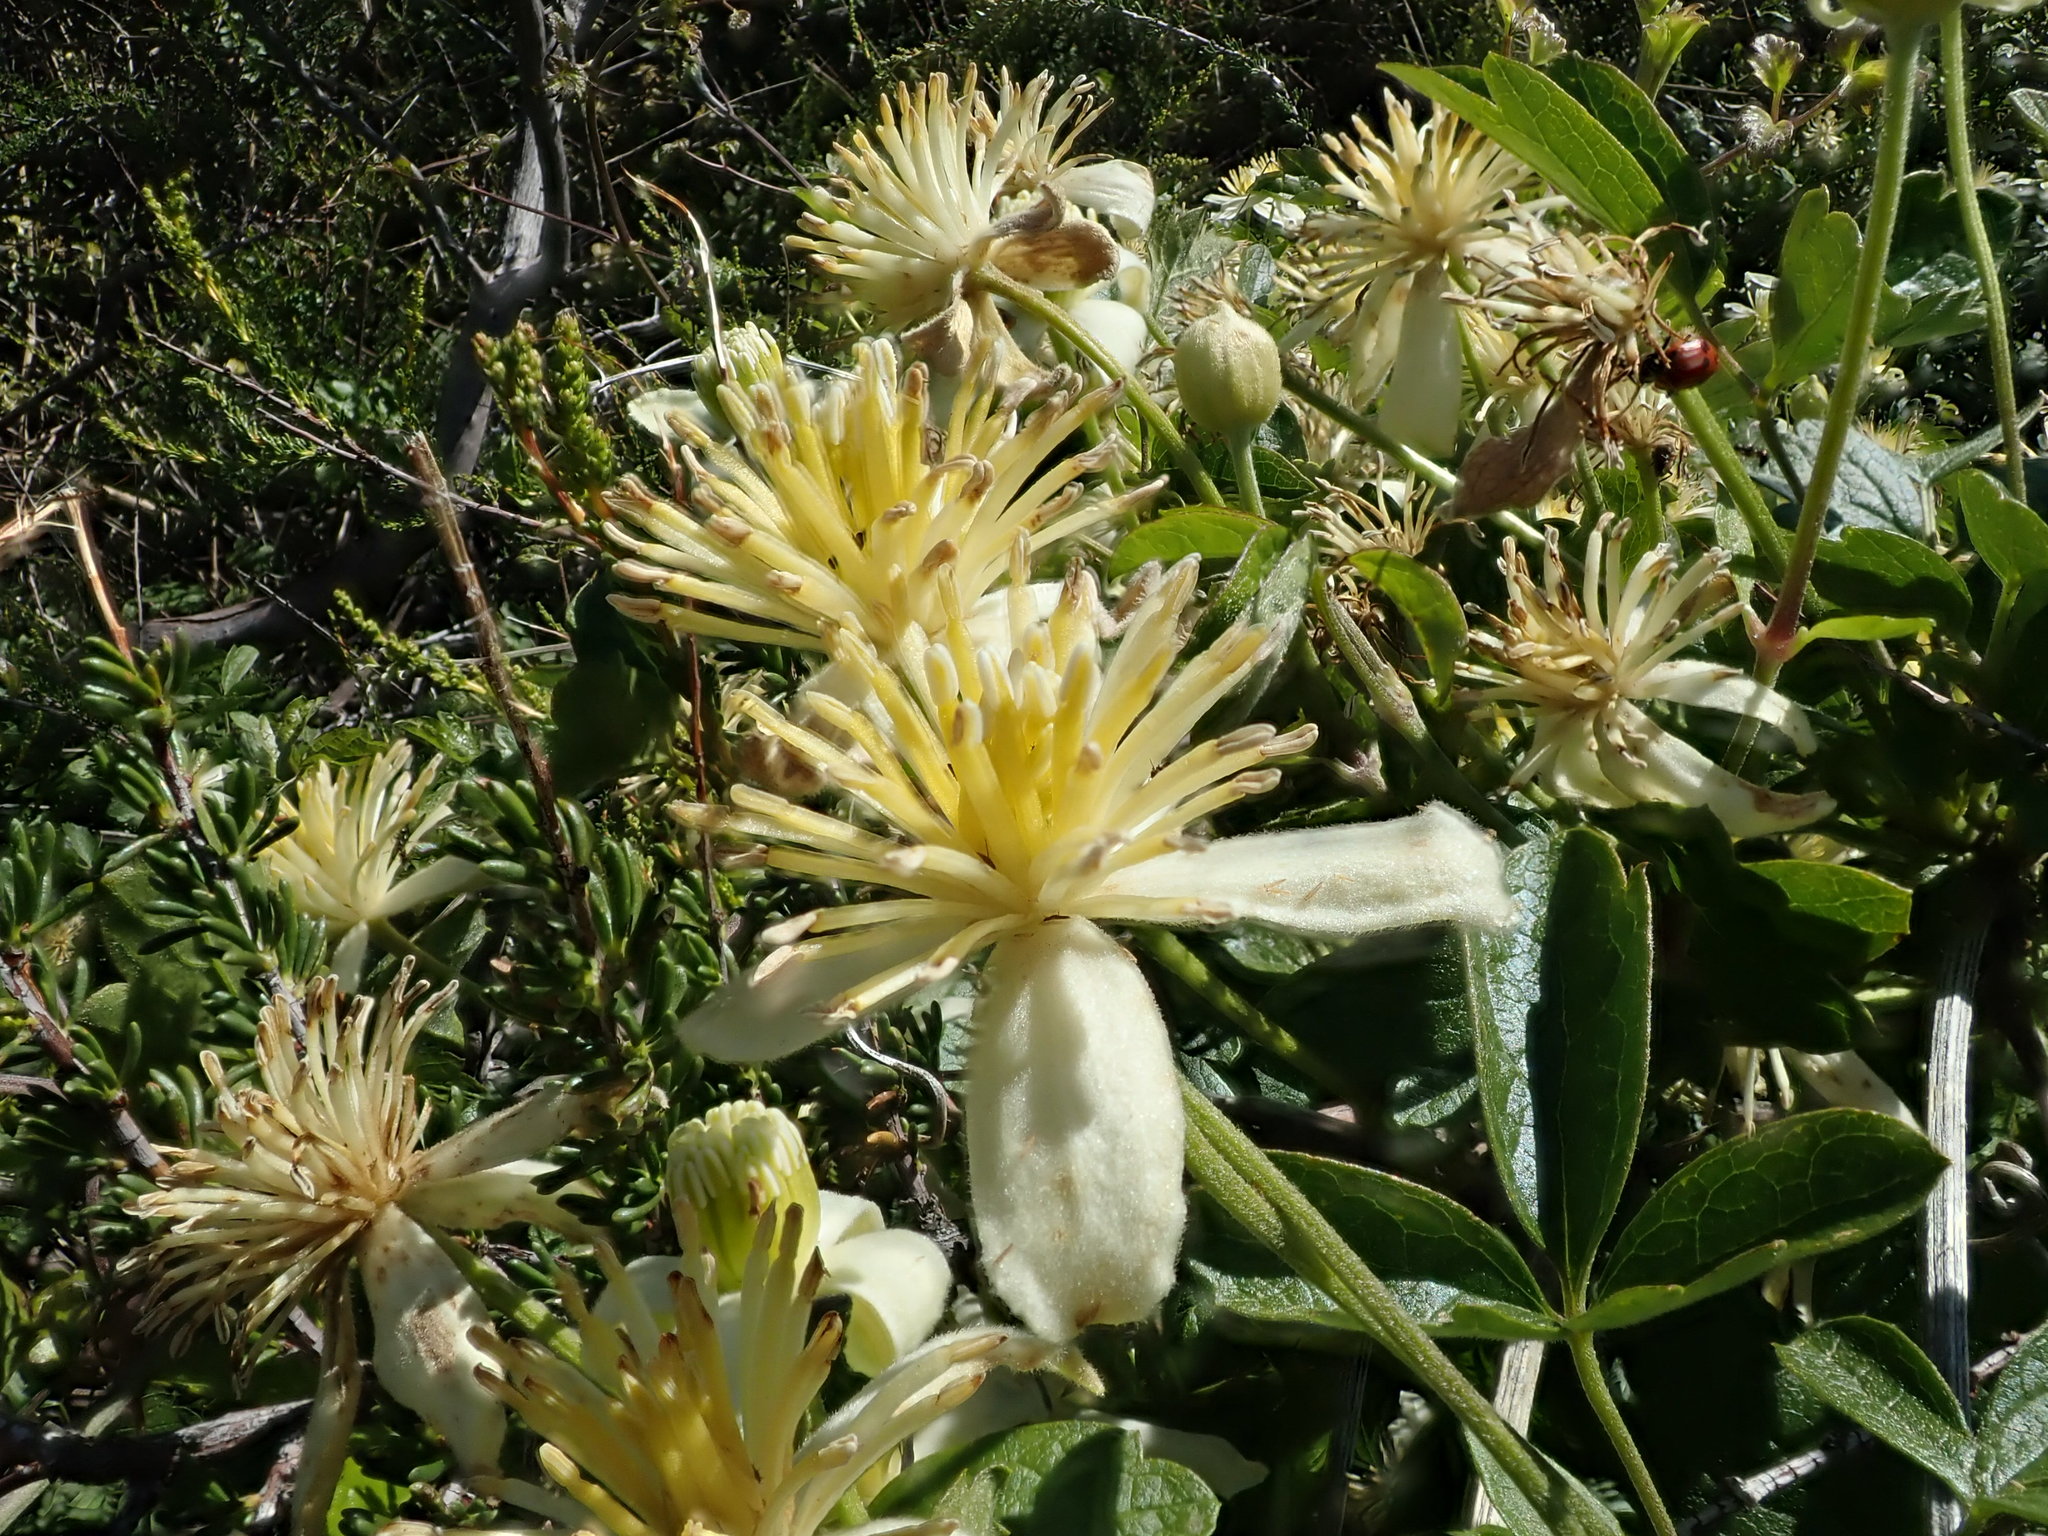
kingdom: Plantae
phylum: Tracheophyta
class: Magnoliopsida
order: Ranunculales
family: Ranunculaceae
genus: Clematis
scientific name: Clematis lasiantha
